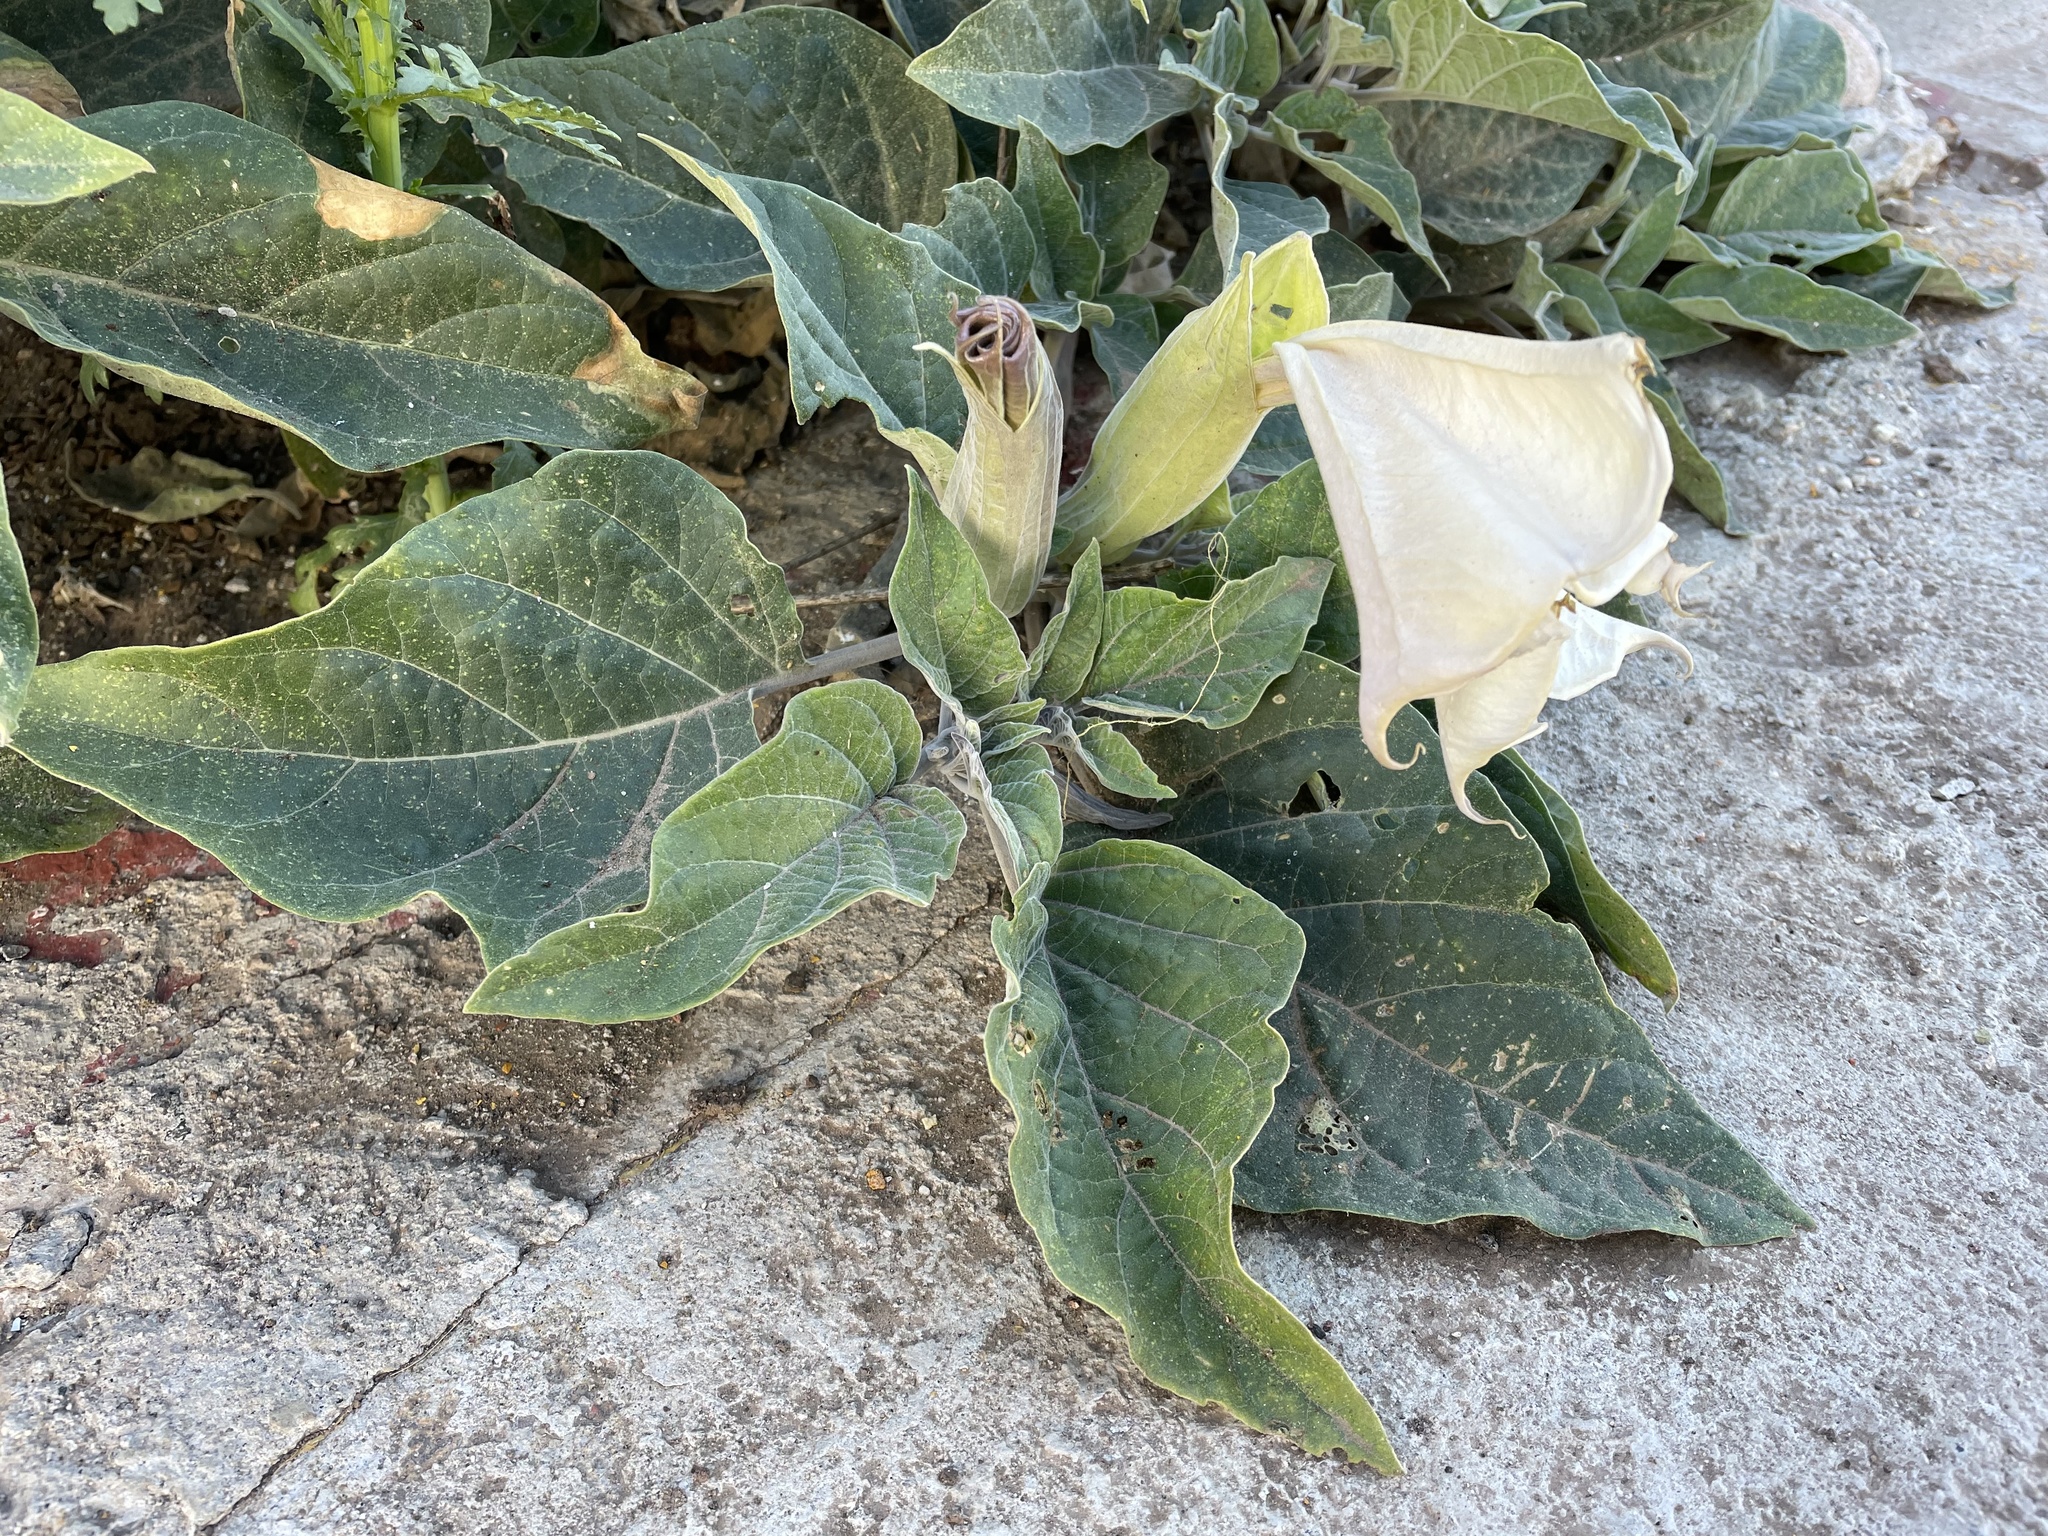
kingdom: Plantae
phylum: Tracheophyta
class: Magnoliopsida
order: Solanales
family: Solanaceae
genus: Datura
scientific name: Datura wrightii
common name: Sacred thorn-apple
